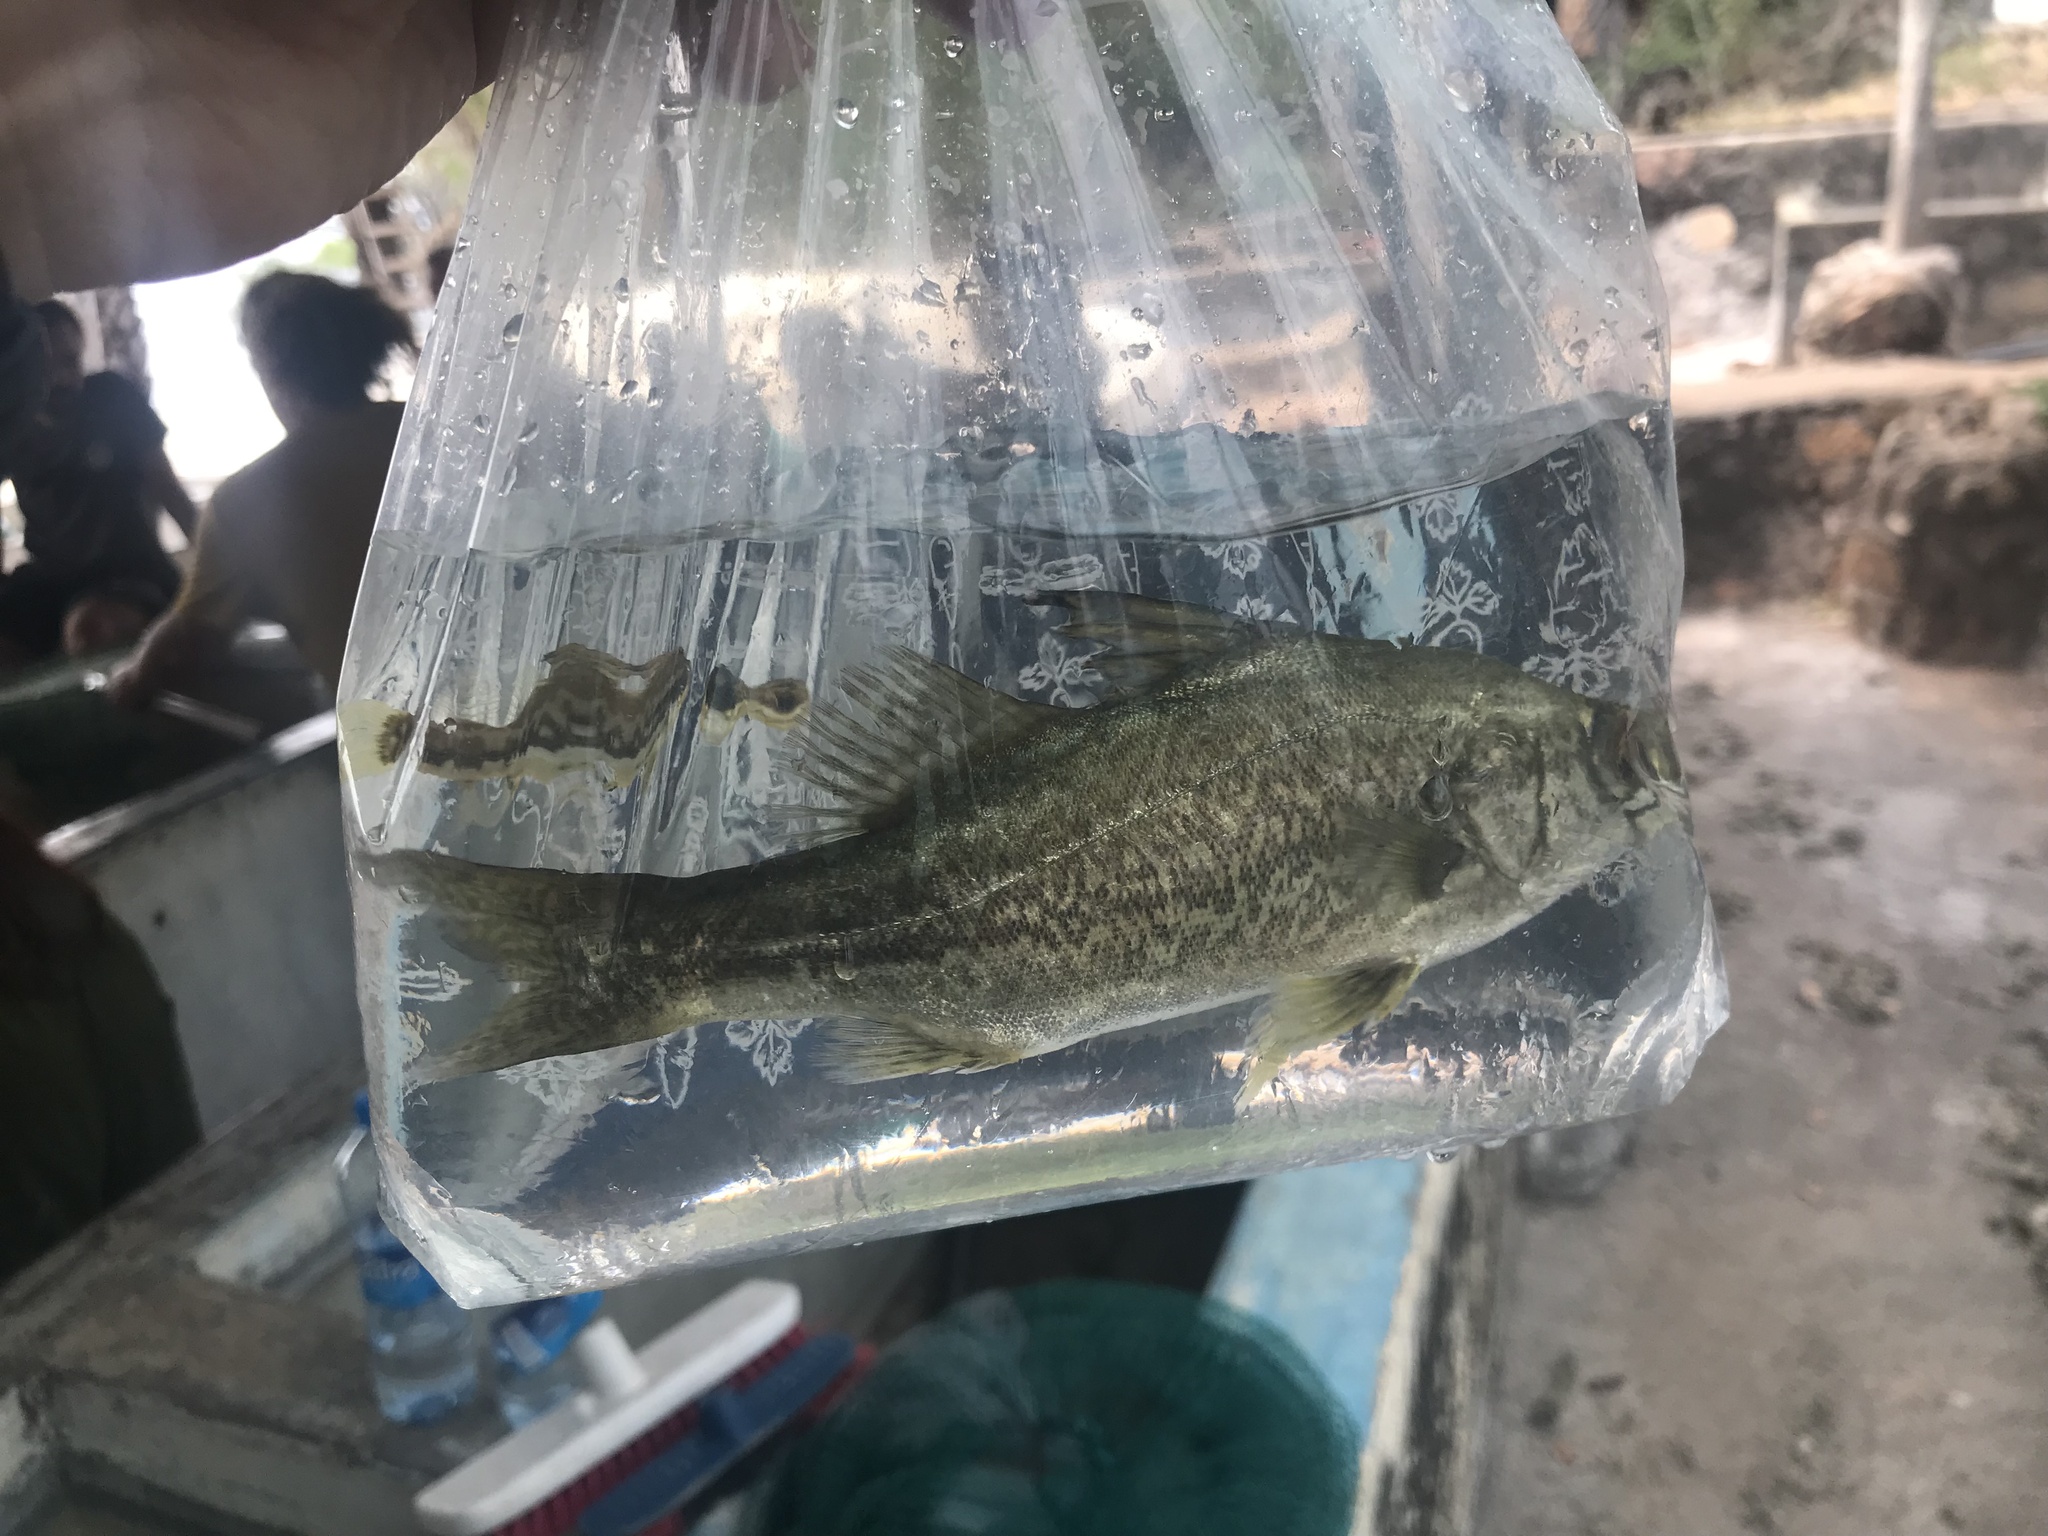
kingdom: Animalia
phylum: Chordata
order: Perciformes
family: Latidae
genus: Lates
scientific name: Lates mariae
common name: Bigeye lates
